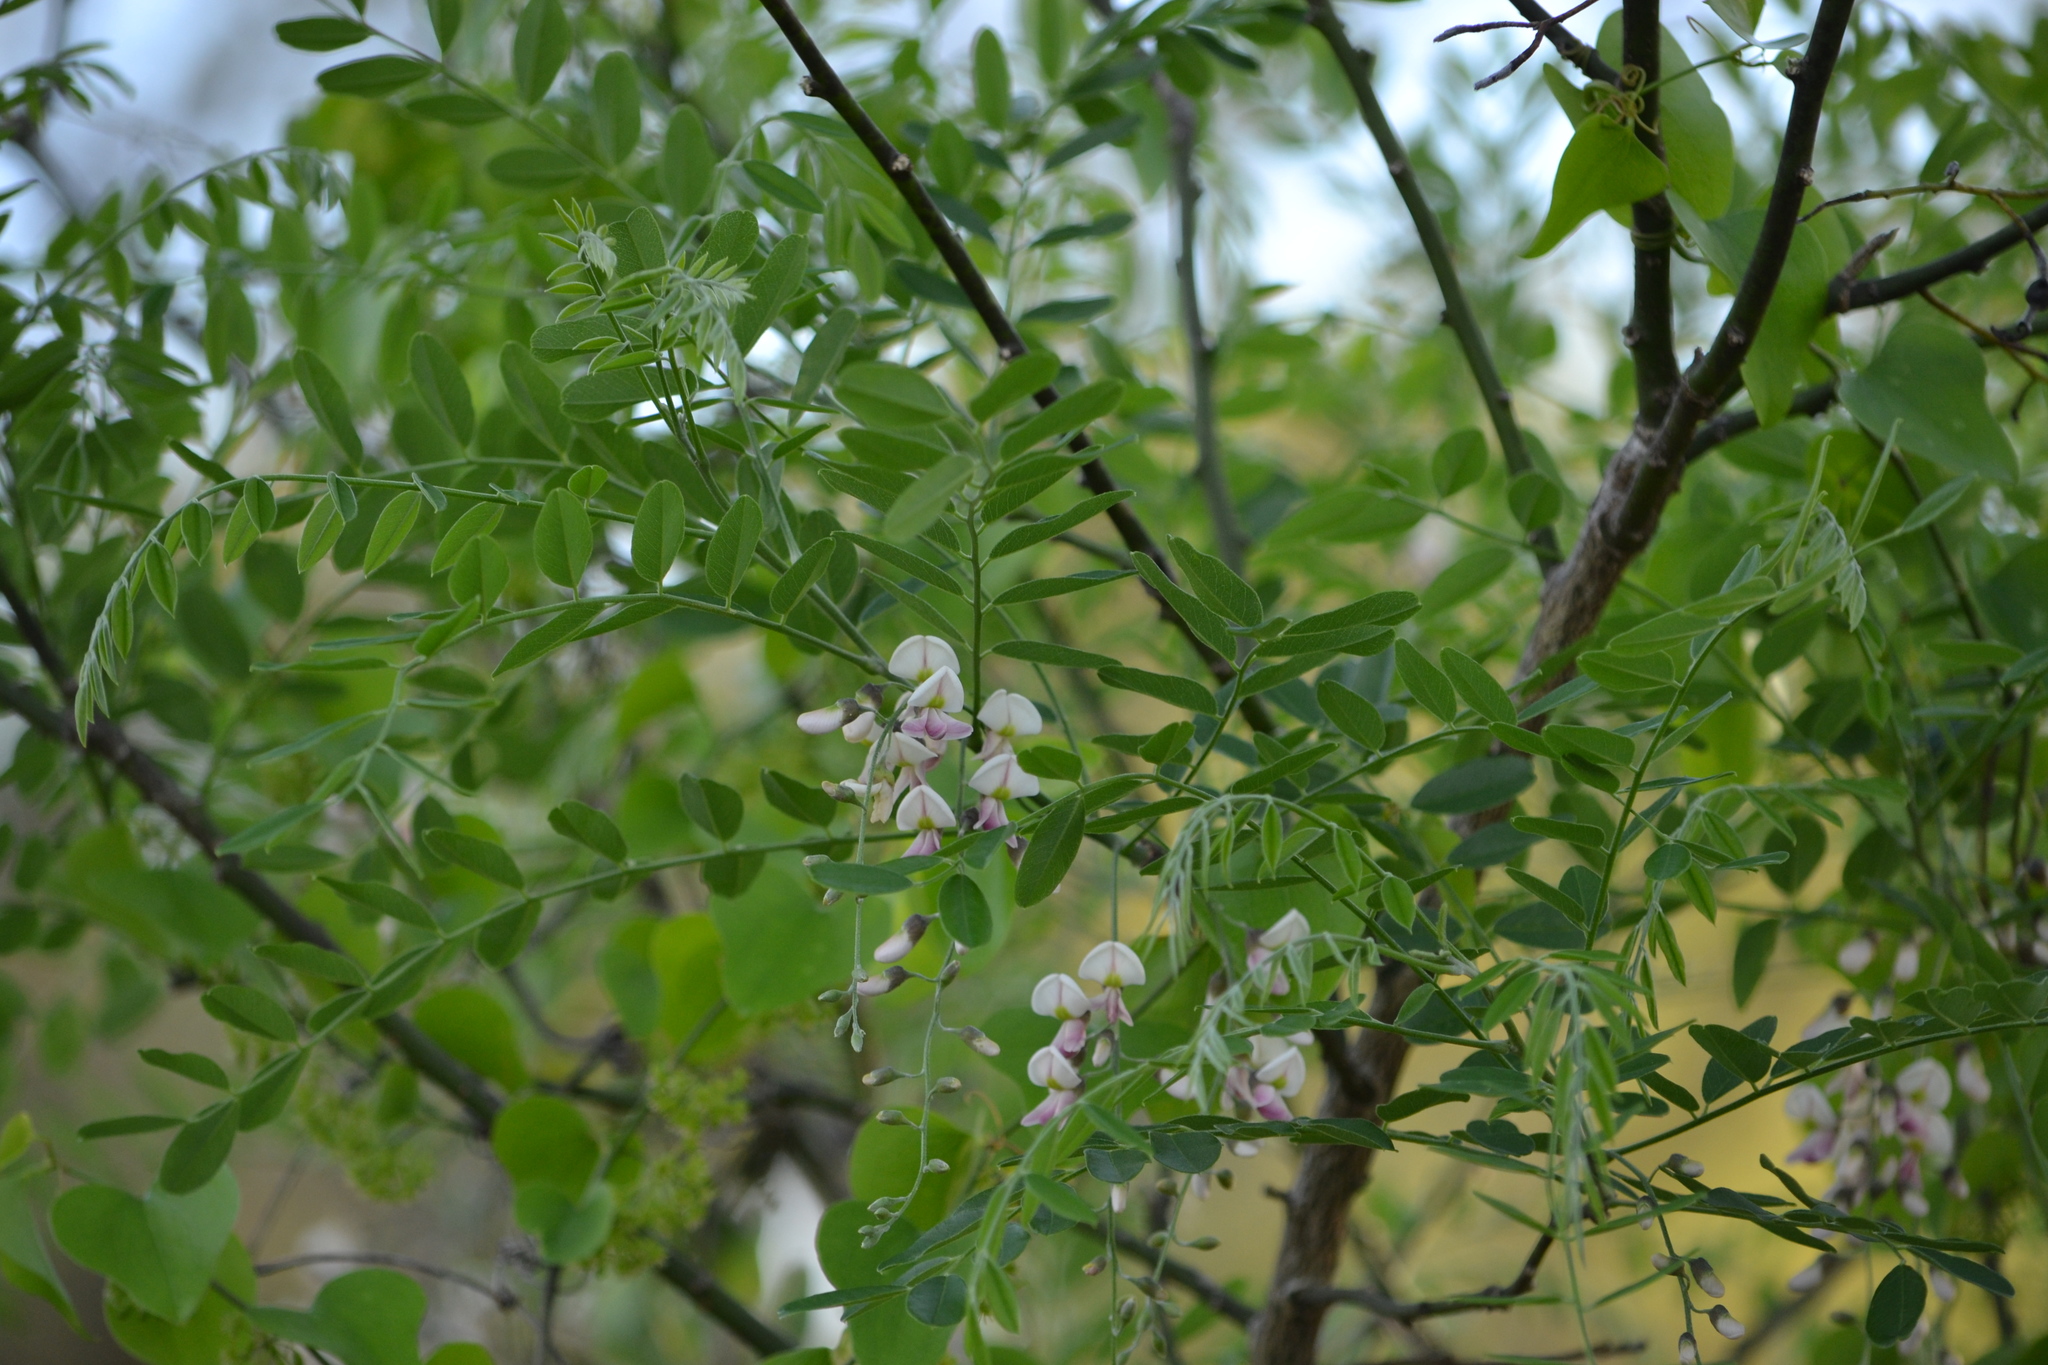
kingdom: Plantae
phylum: Tracheophyta
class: Magnoliopsida
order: Fabales
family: Fabaceae
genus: Styphnolobium
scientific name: Styphnolobium affine
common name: Texas sophora
